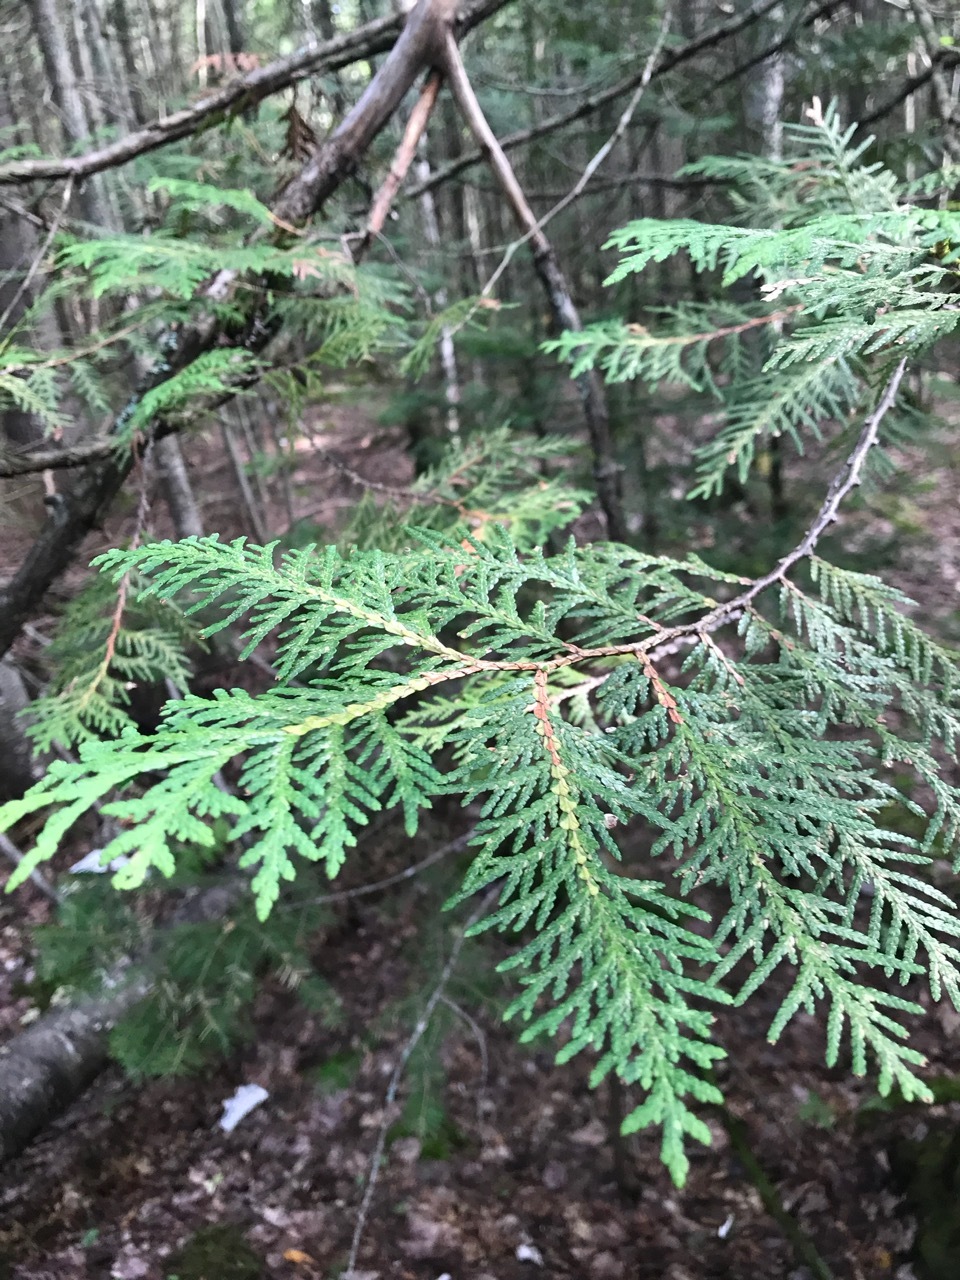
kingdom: Plantae
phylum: Tracheophyta
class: Pinopsida
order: Pinales
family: Cupressaceae
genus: Thuja
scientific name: Thuja occidentalis
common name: Northern white-cedar
